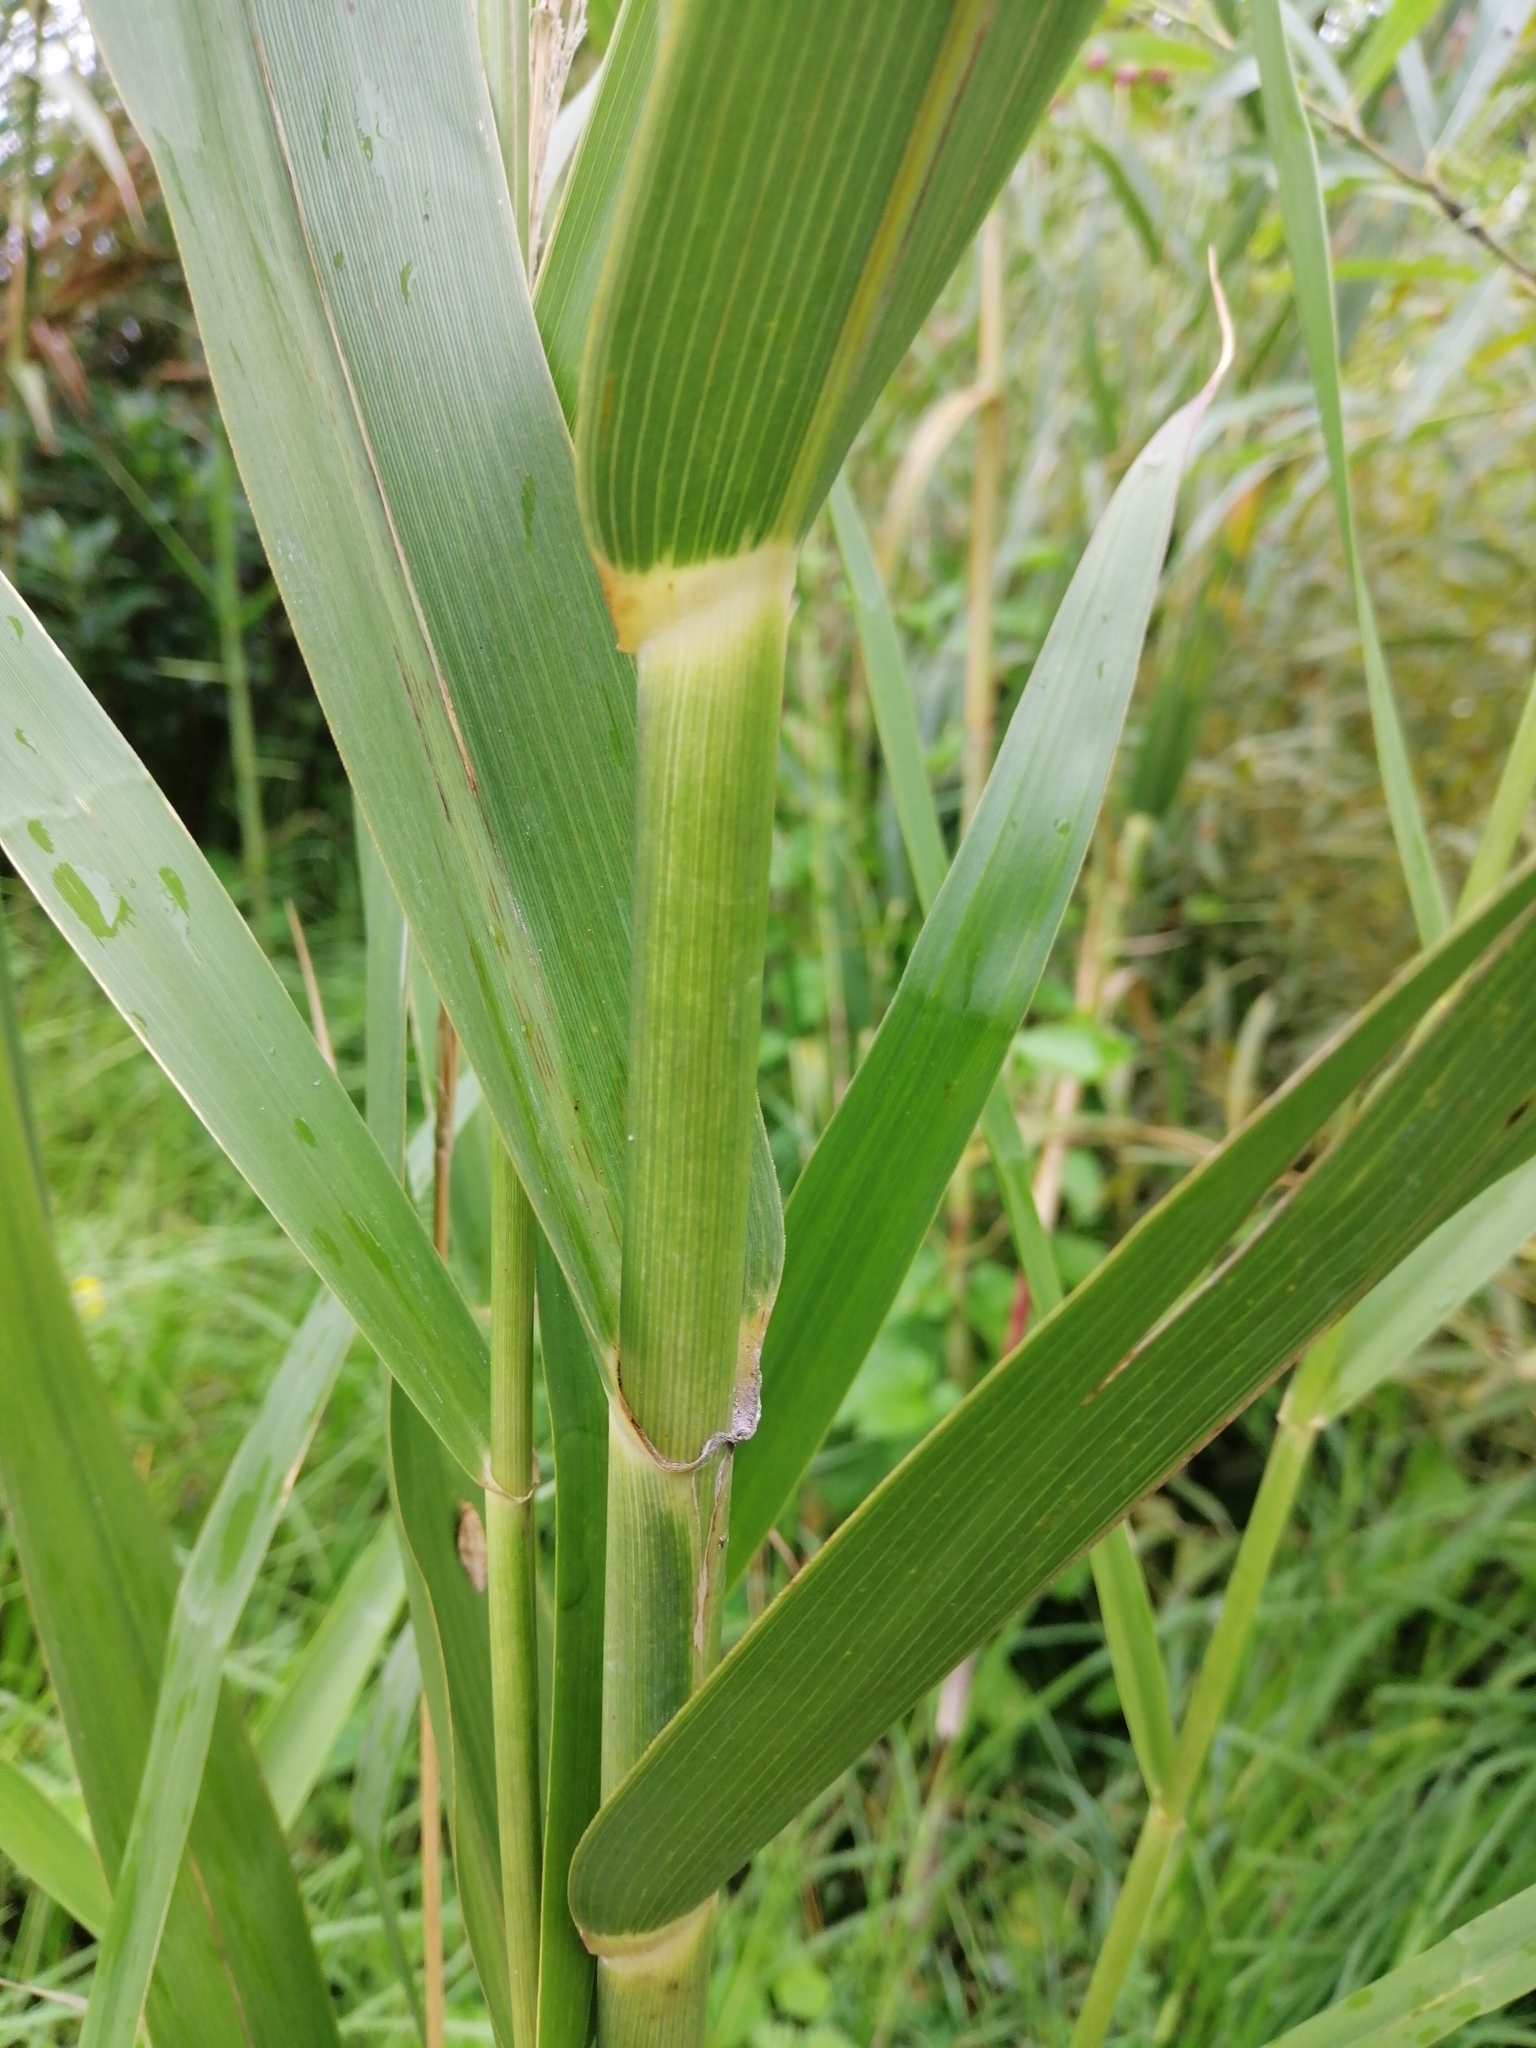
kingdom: Plantae
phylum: Tracheophyta
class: Liliopsida
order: Poales
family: Poaceae
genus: Phragmites
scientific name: Phragmites karka
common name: Tropical reed
